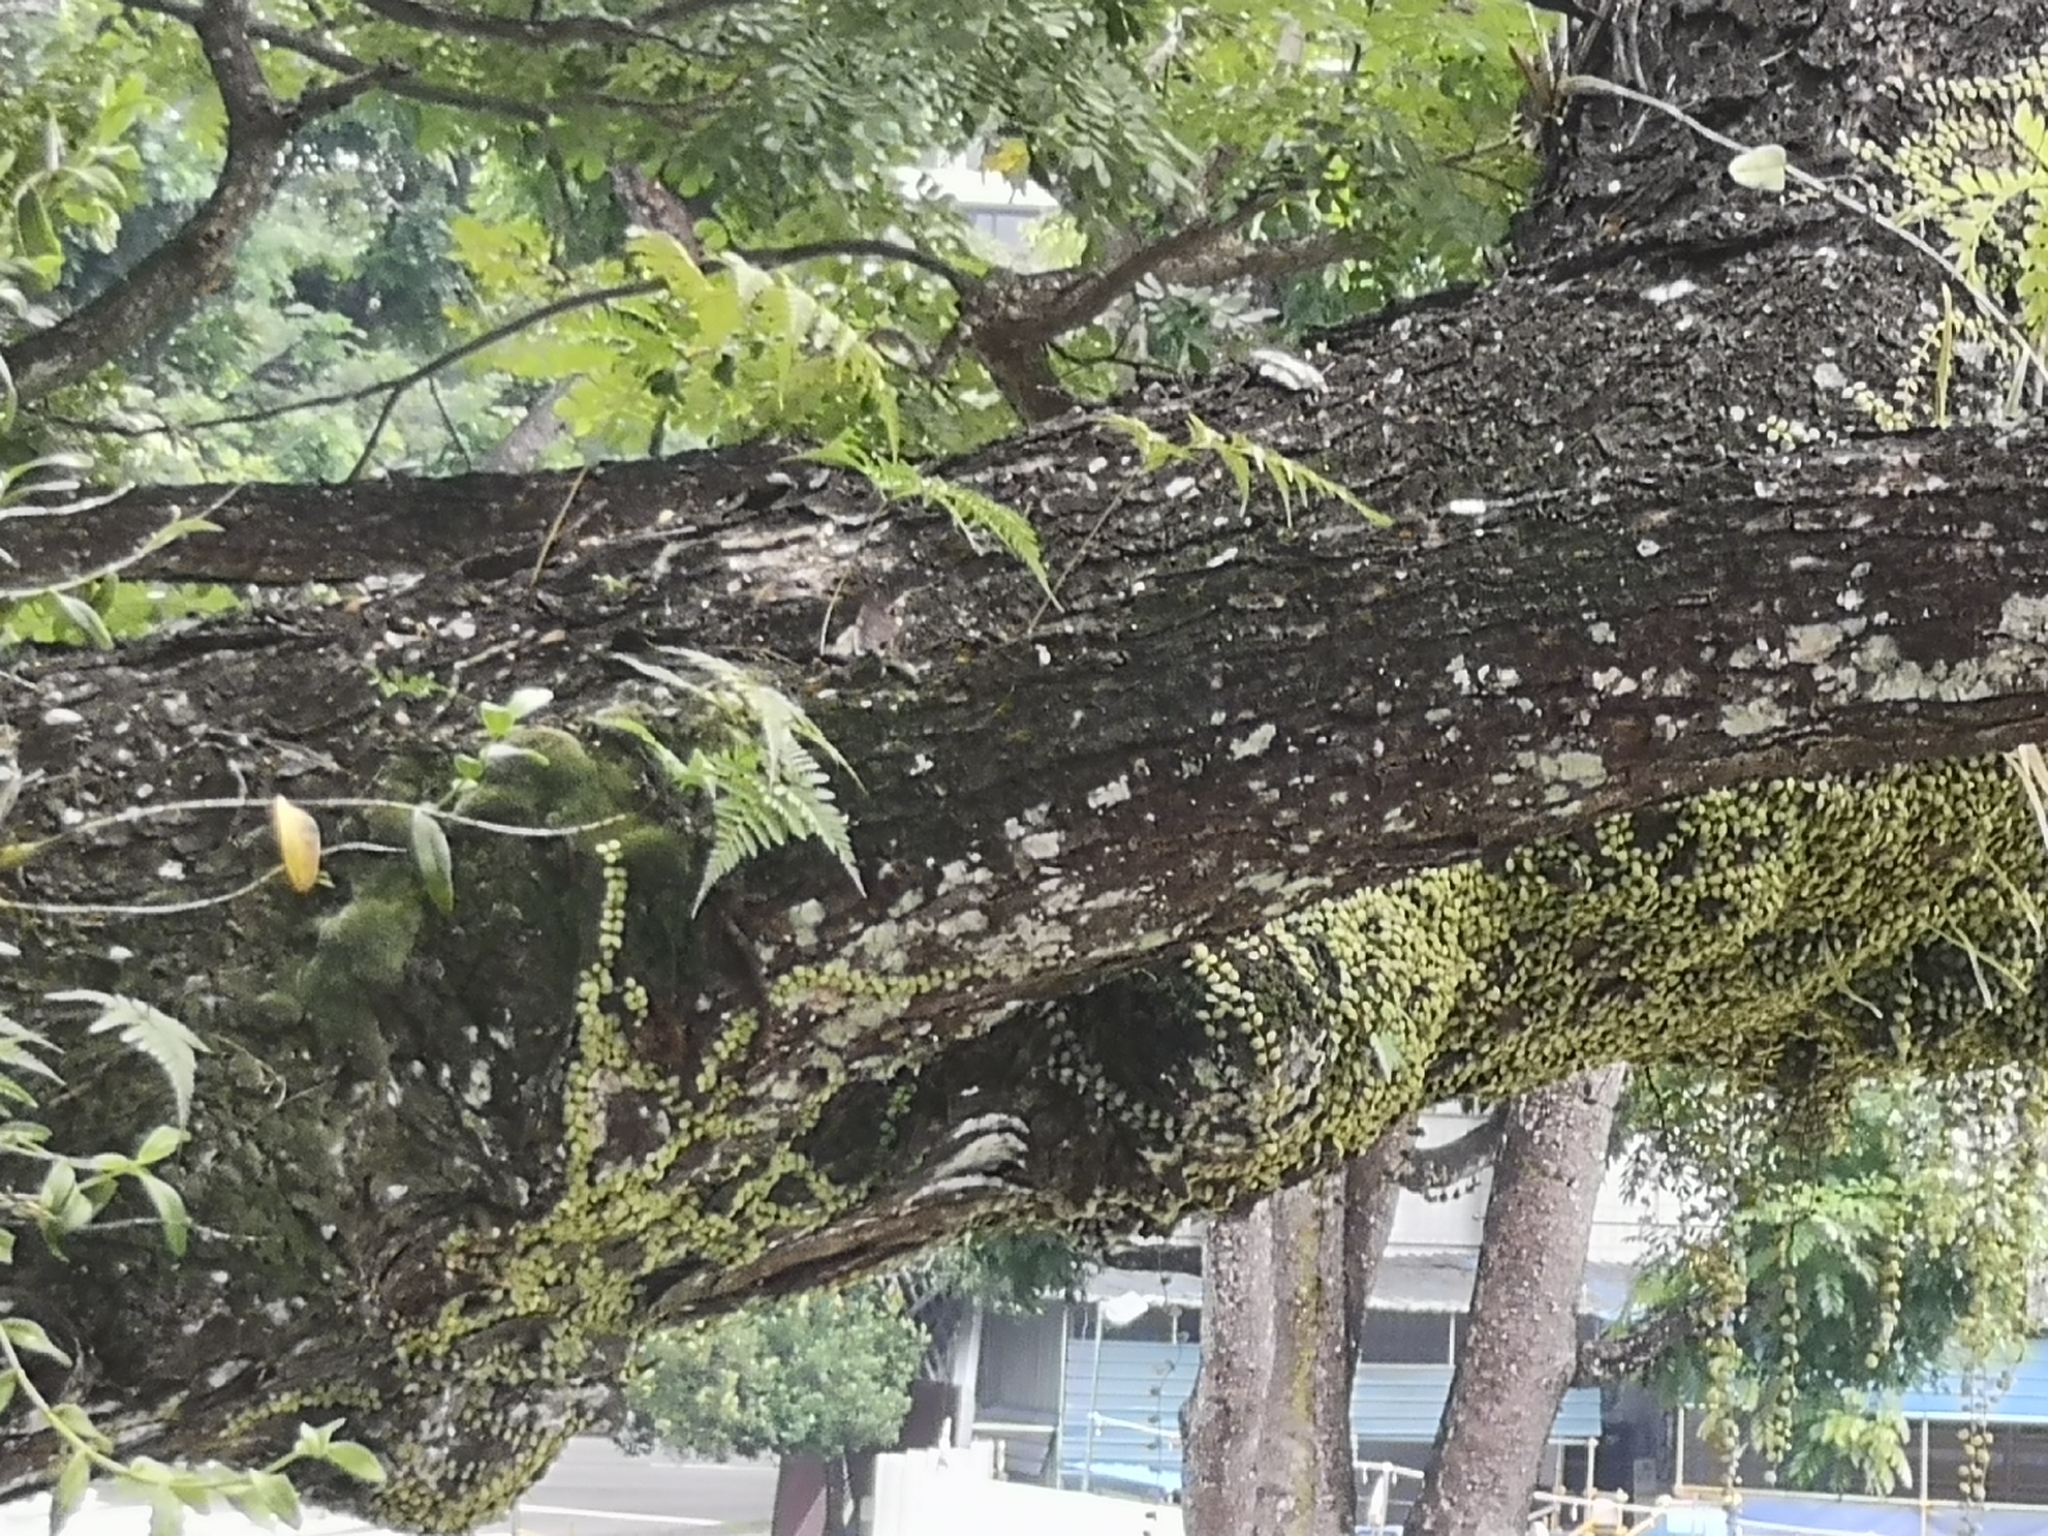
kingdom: Plantae
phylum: Tracheophyta
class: Magnoliopsida
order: Gentianales
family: Apocynaceae
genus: Dischidia
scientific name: Dischidia nummularia
